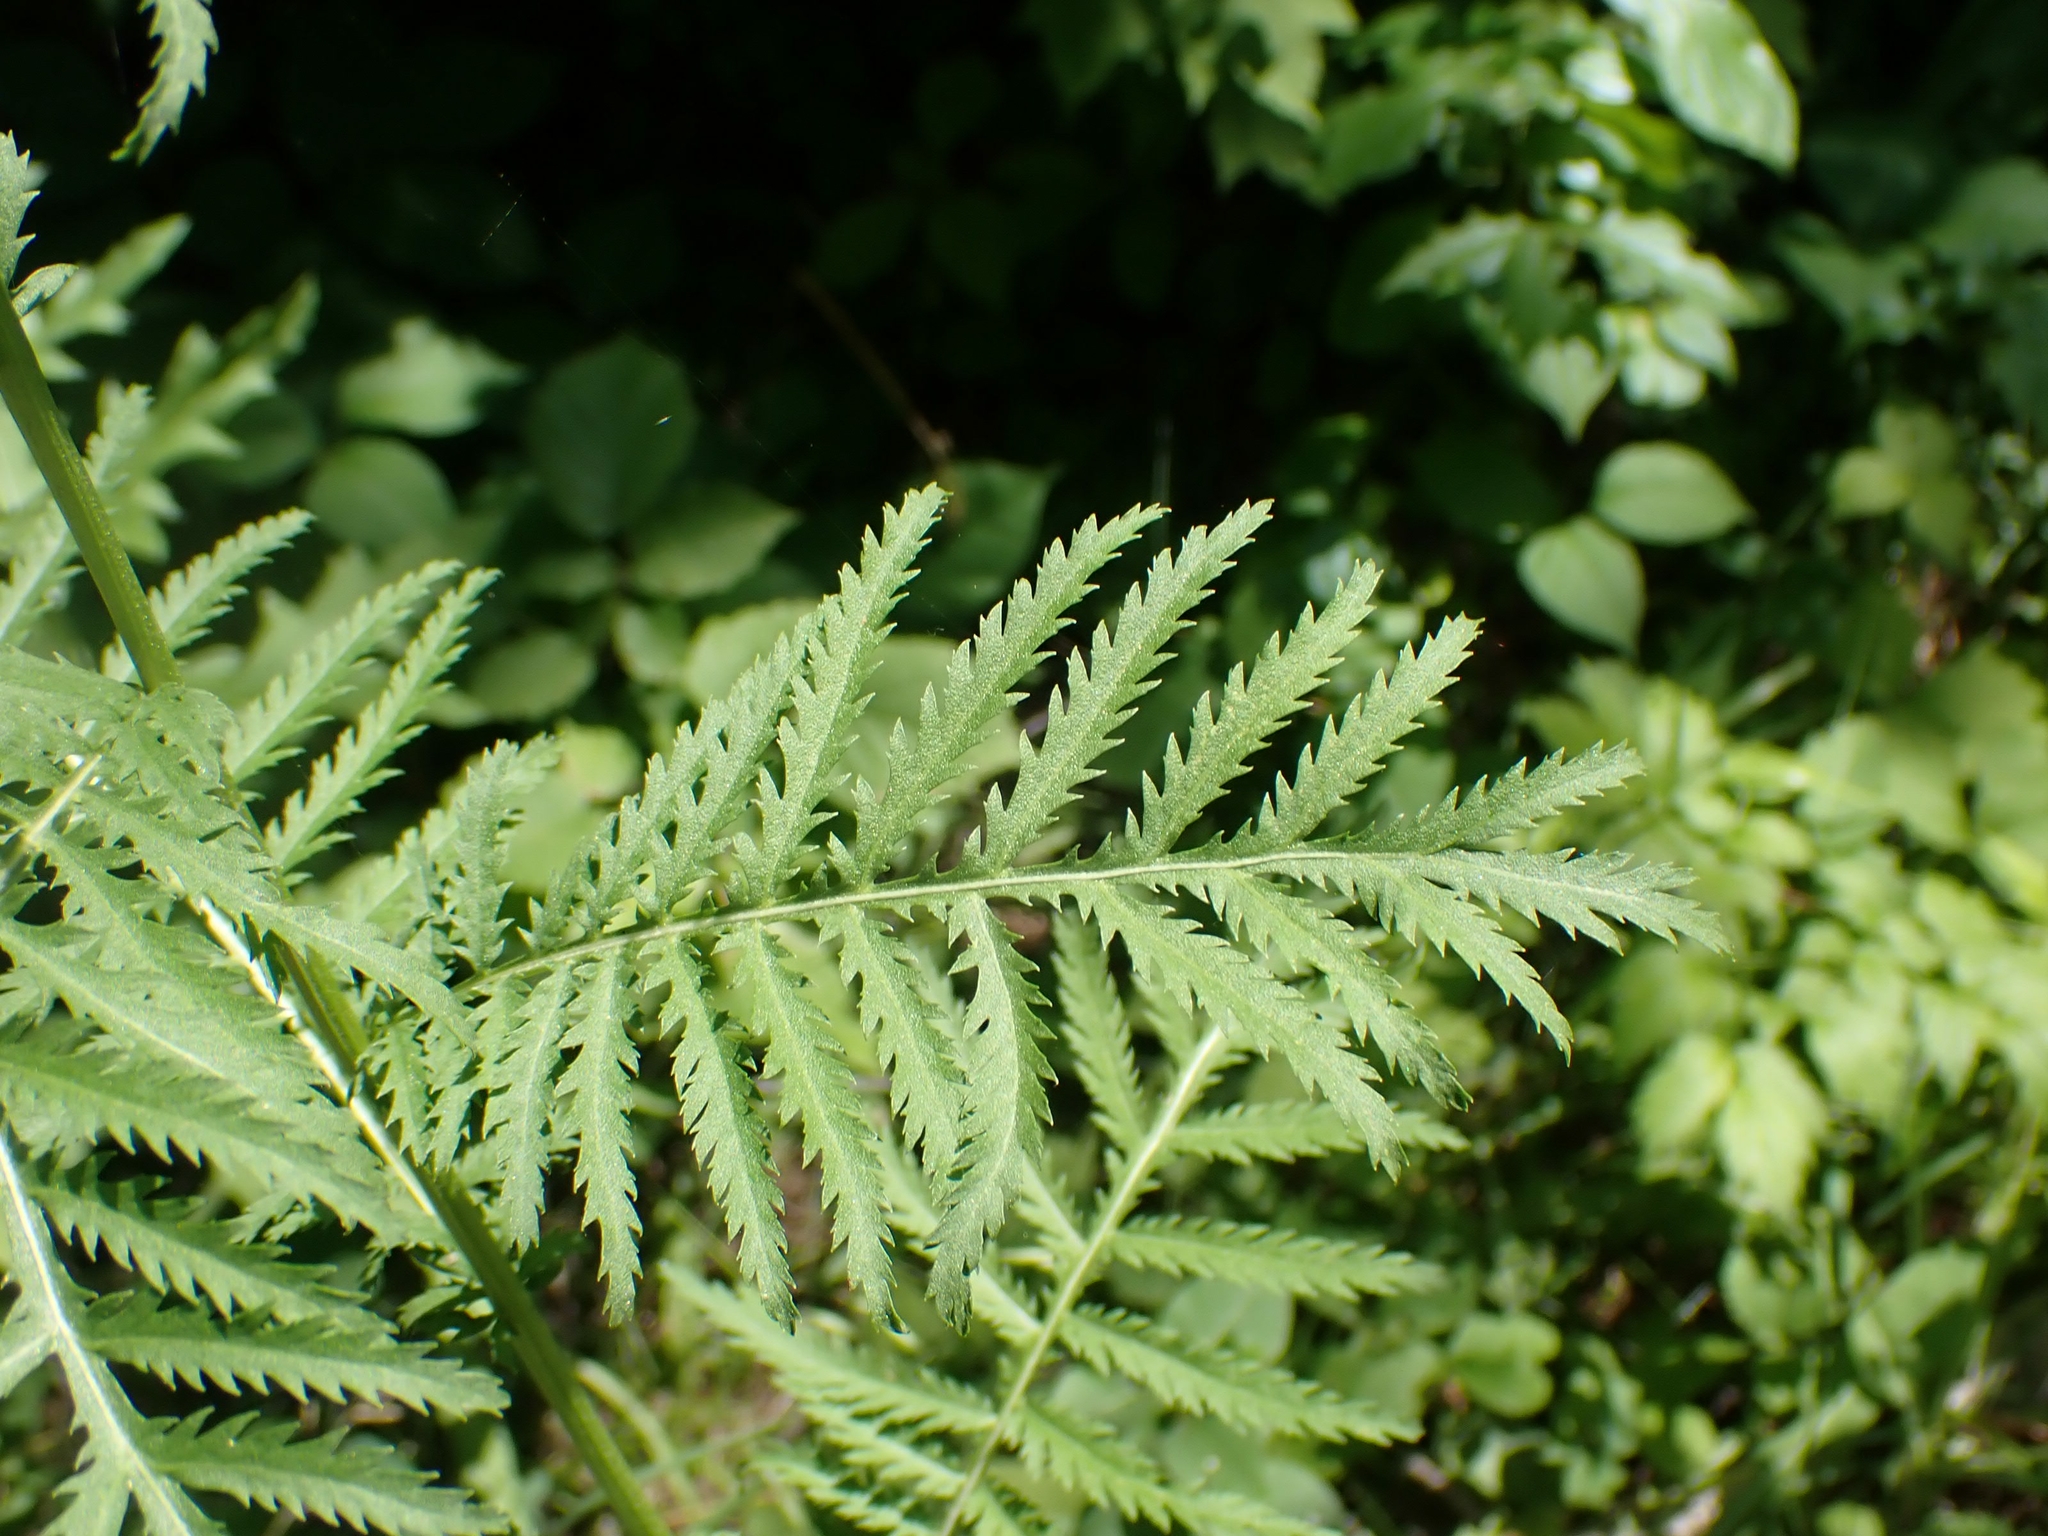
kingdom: Plantae
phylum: Tracheophyta
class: Magnoliopsida
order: Asterales
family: Asteraceae
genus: Tanacetum
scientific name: Tanacetum vulgare
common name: Common tansy
